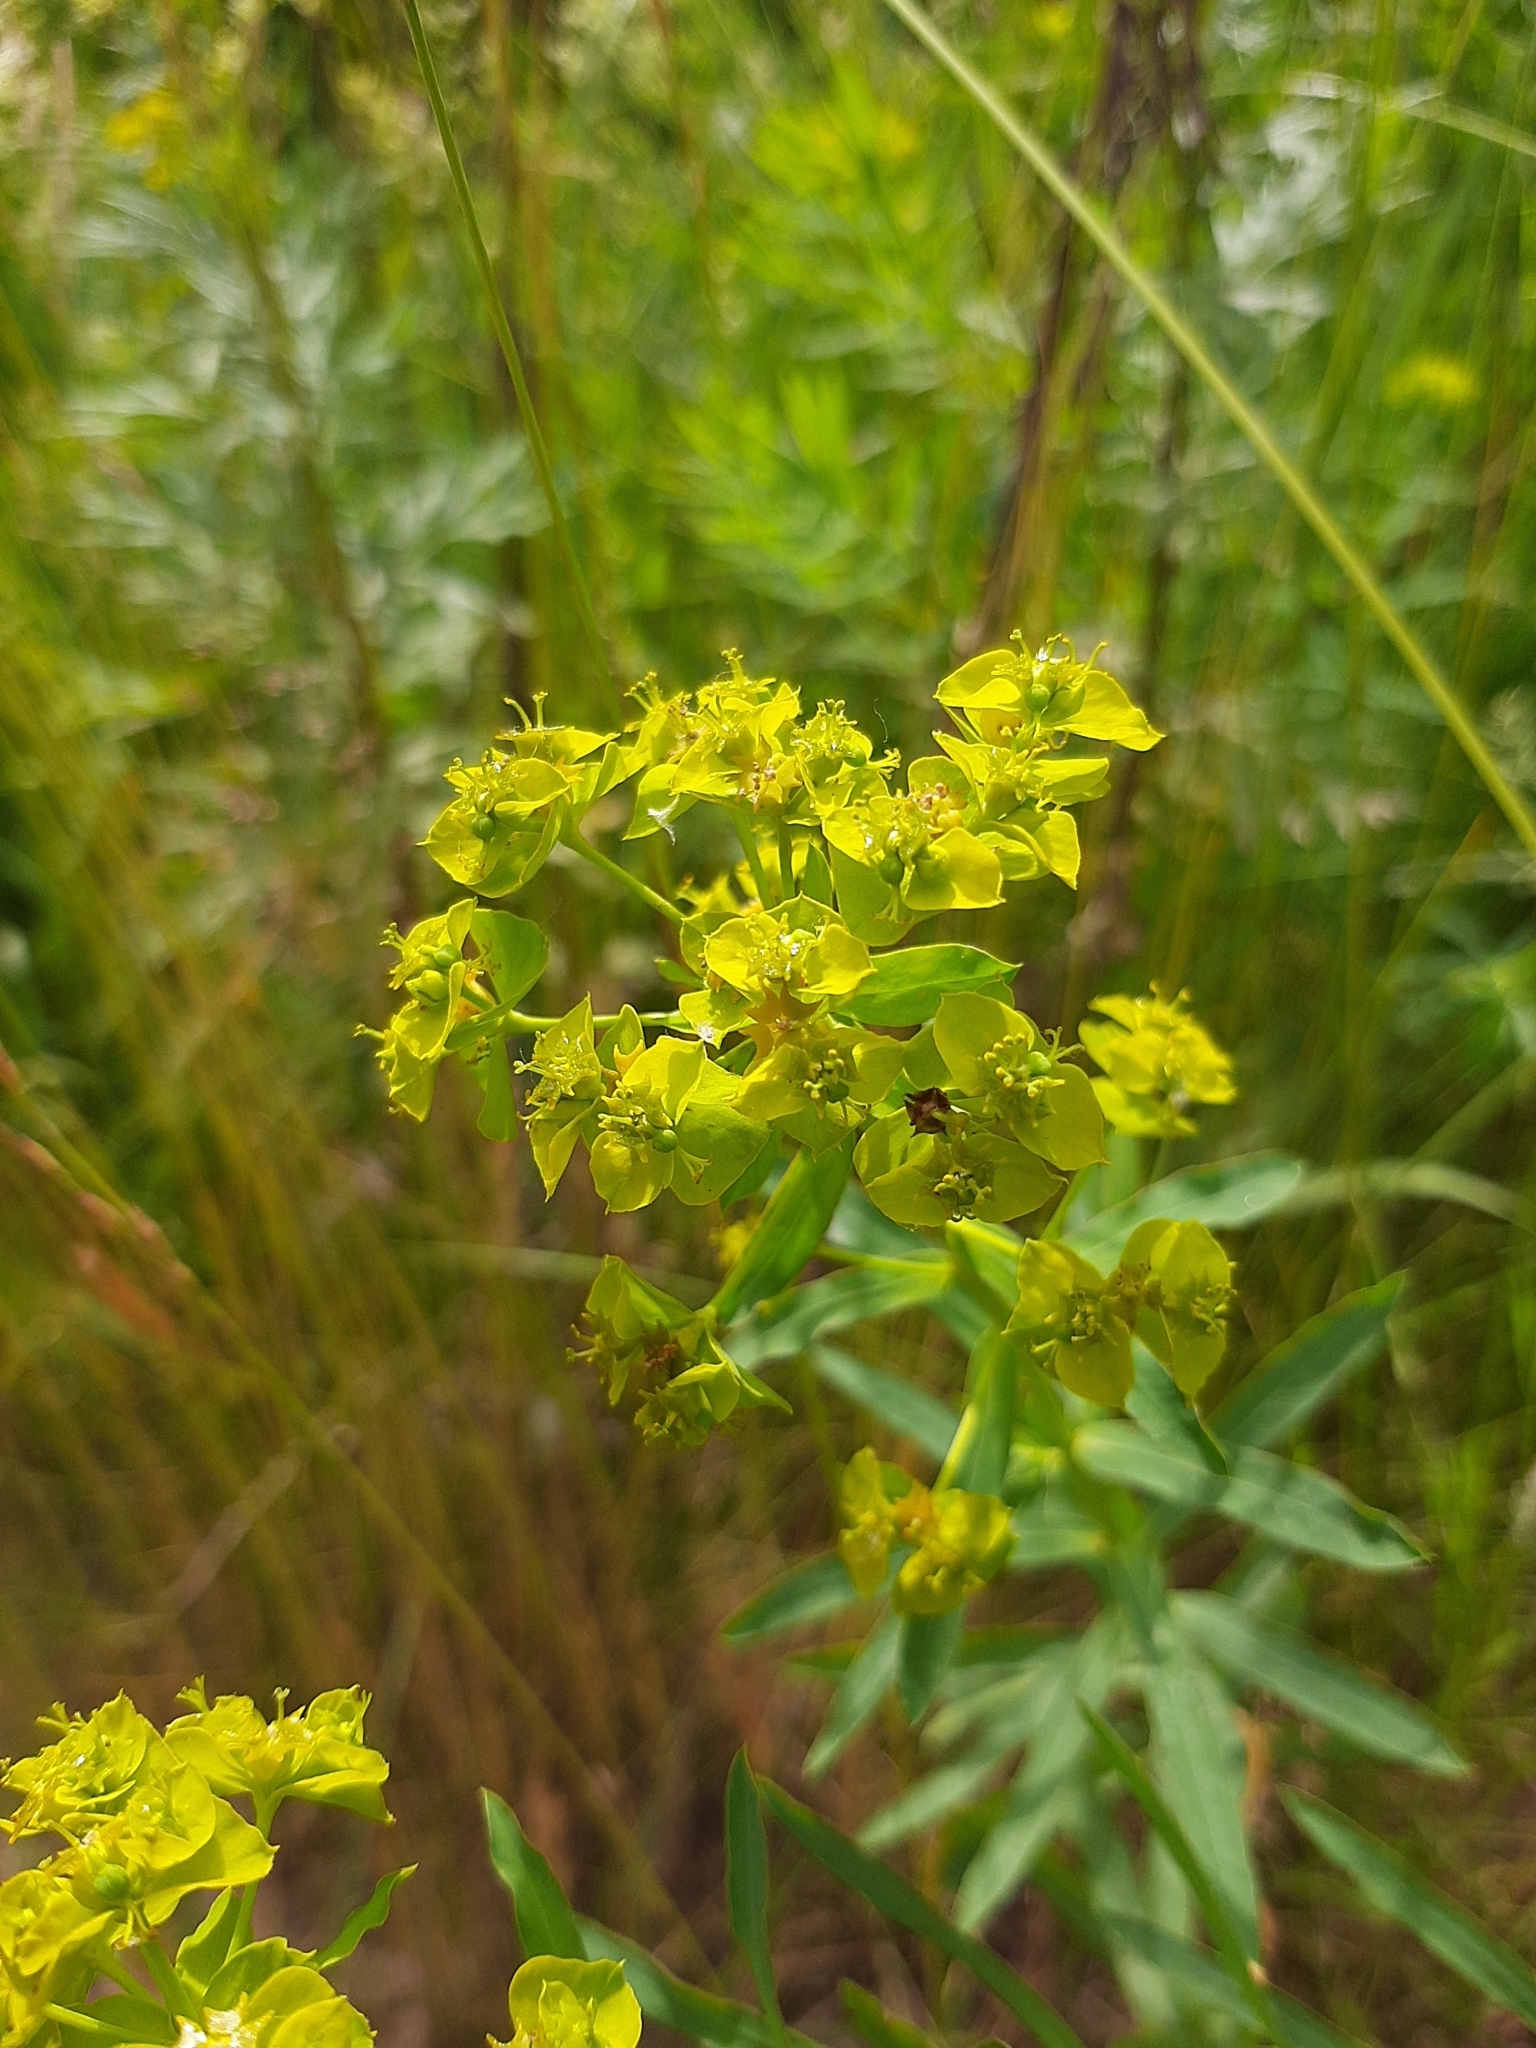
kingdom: Plantae
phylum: Tracheophyta
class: Magnoliopsida
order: Malpighiales
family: Euphorbiaceae
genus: Euphorbia
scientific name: Euphorbia virgata
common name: Leafy spurge
